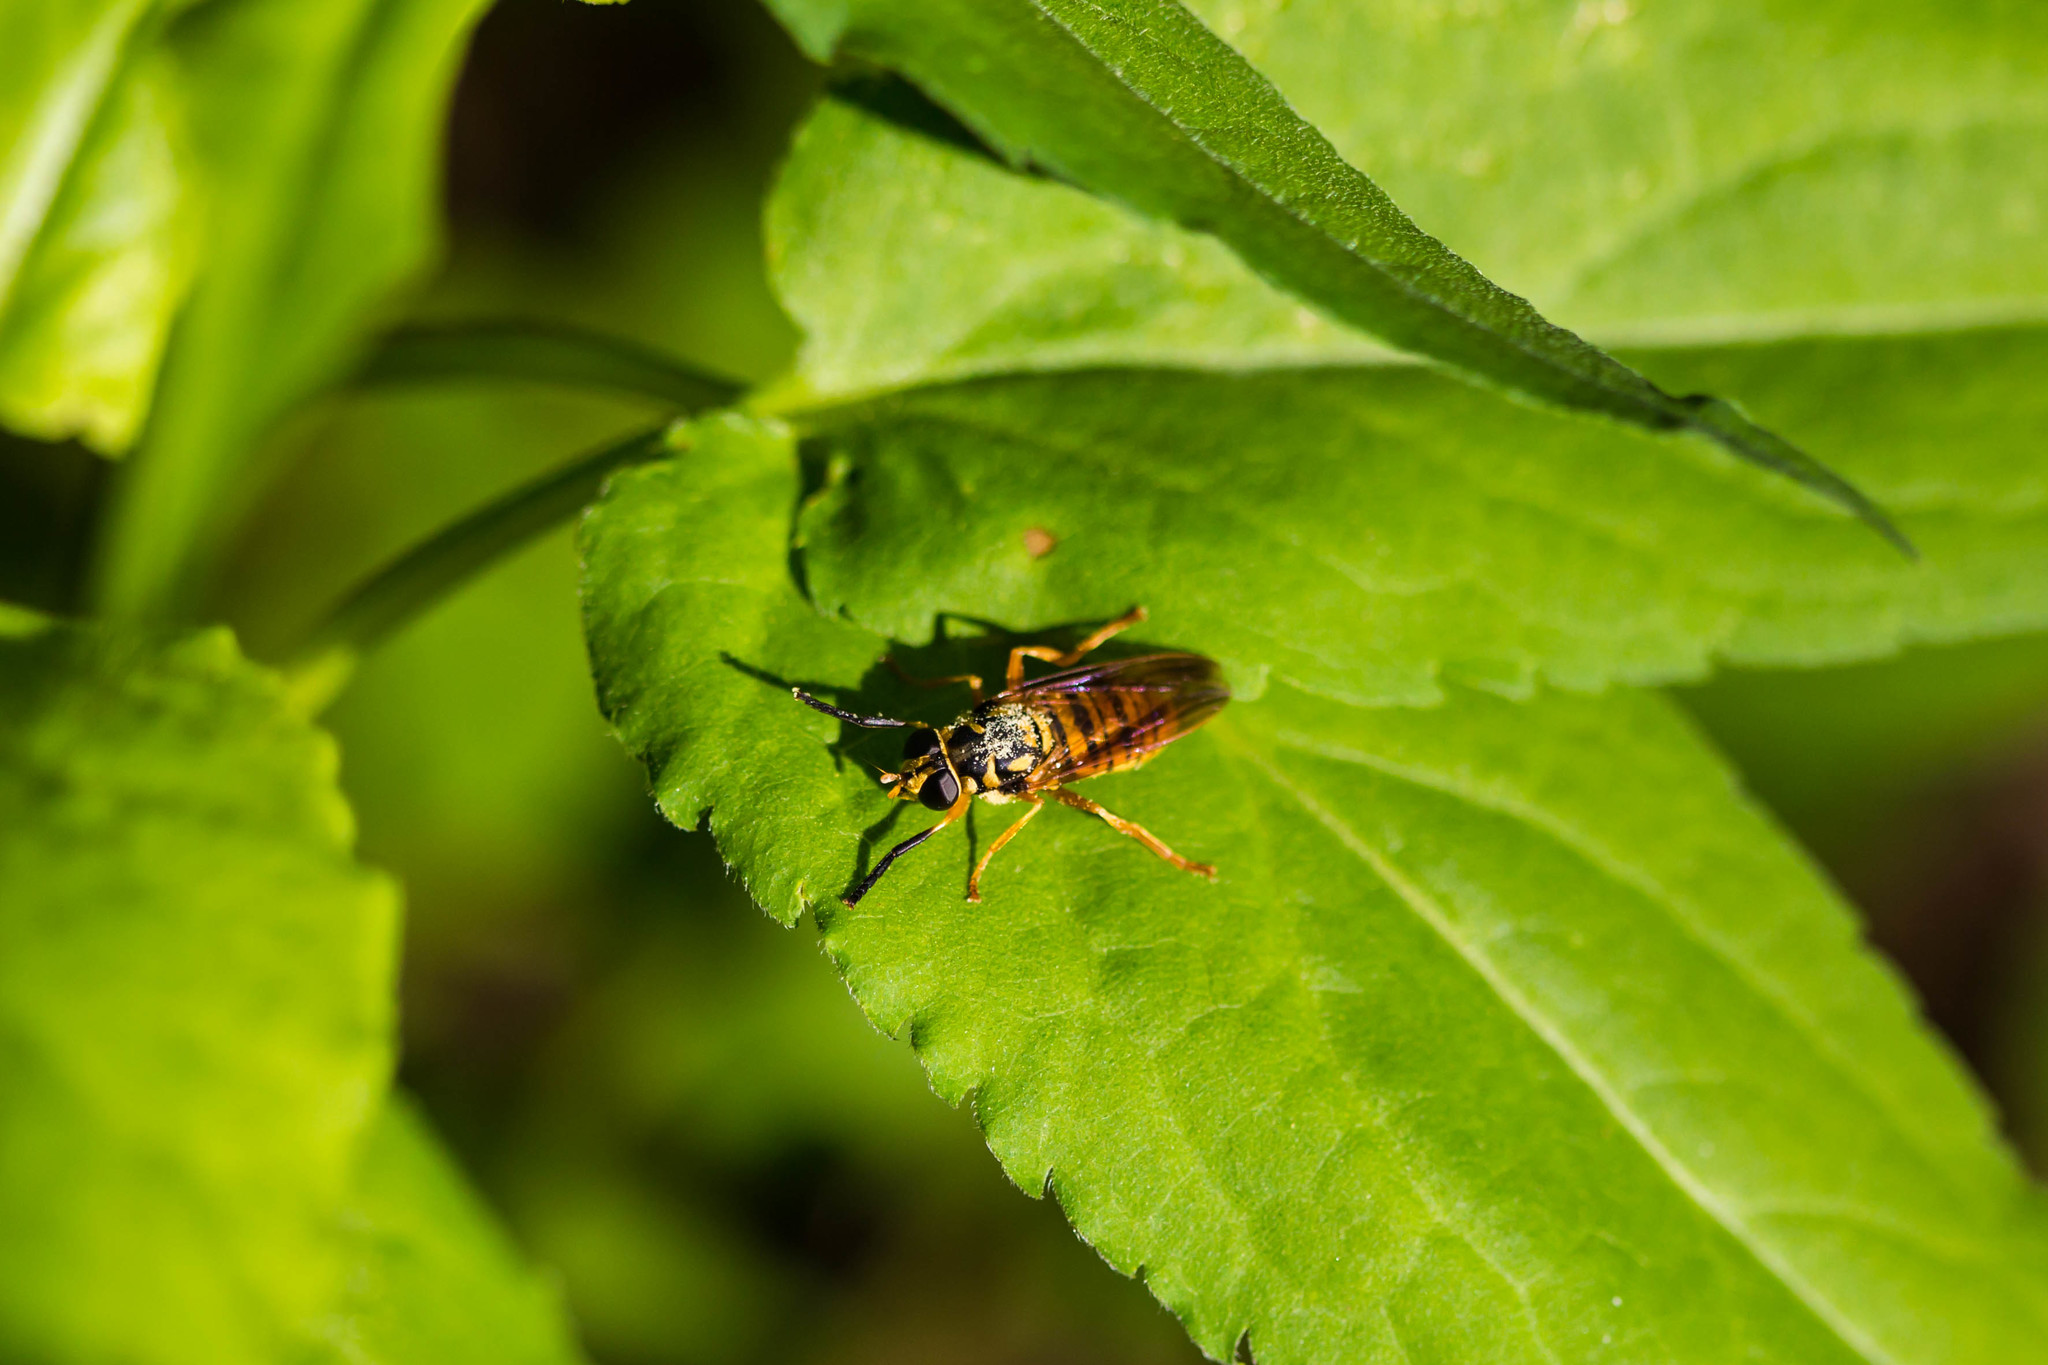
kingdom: Animalia
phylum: Arthropoda
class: Insecta
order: Diptera
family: Syrphidae
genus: Temnostoma
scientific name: Temnostoma daochum
